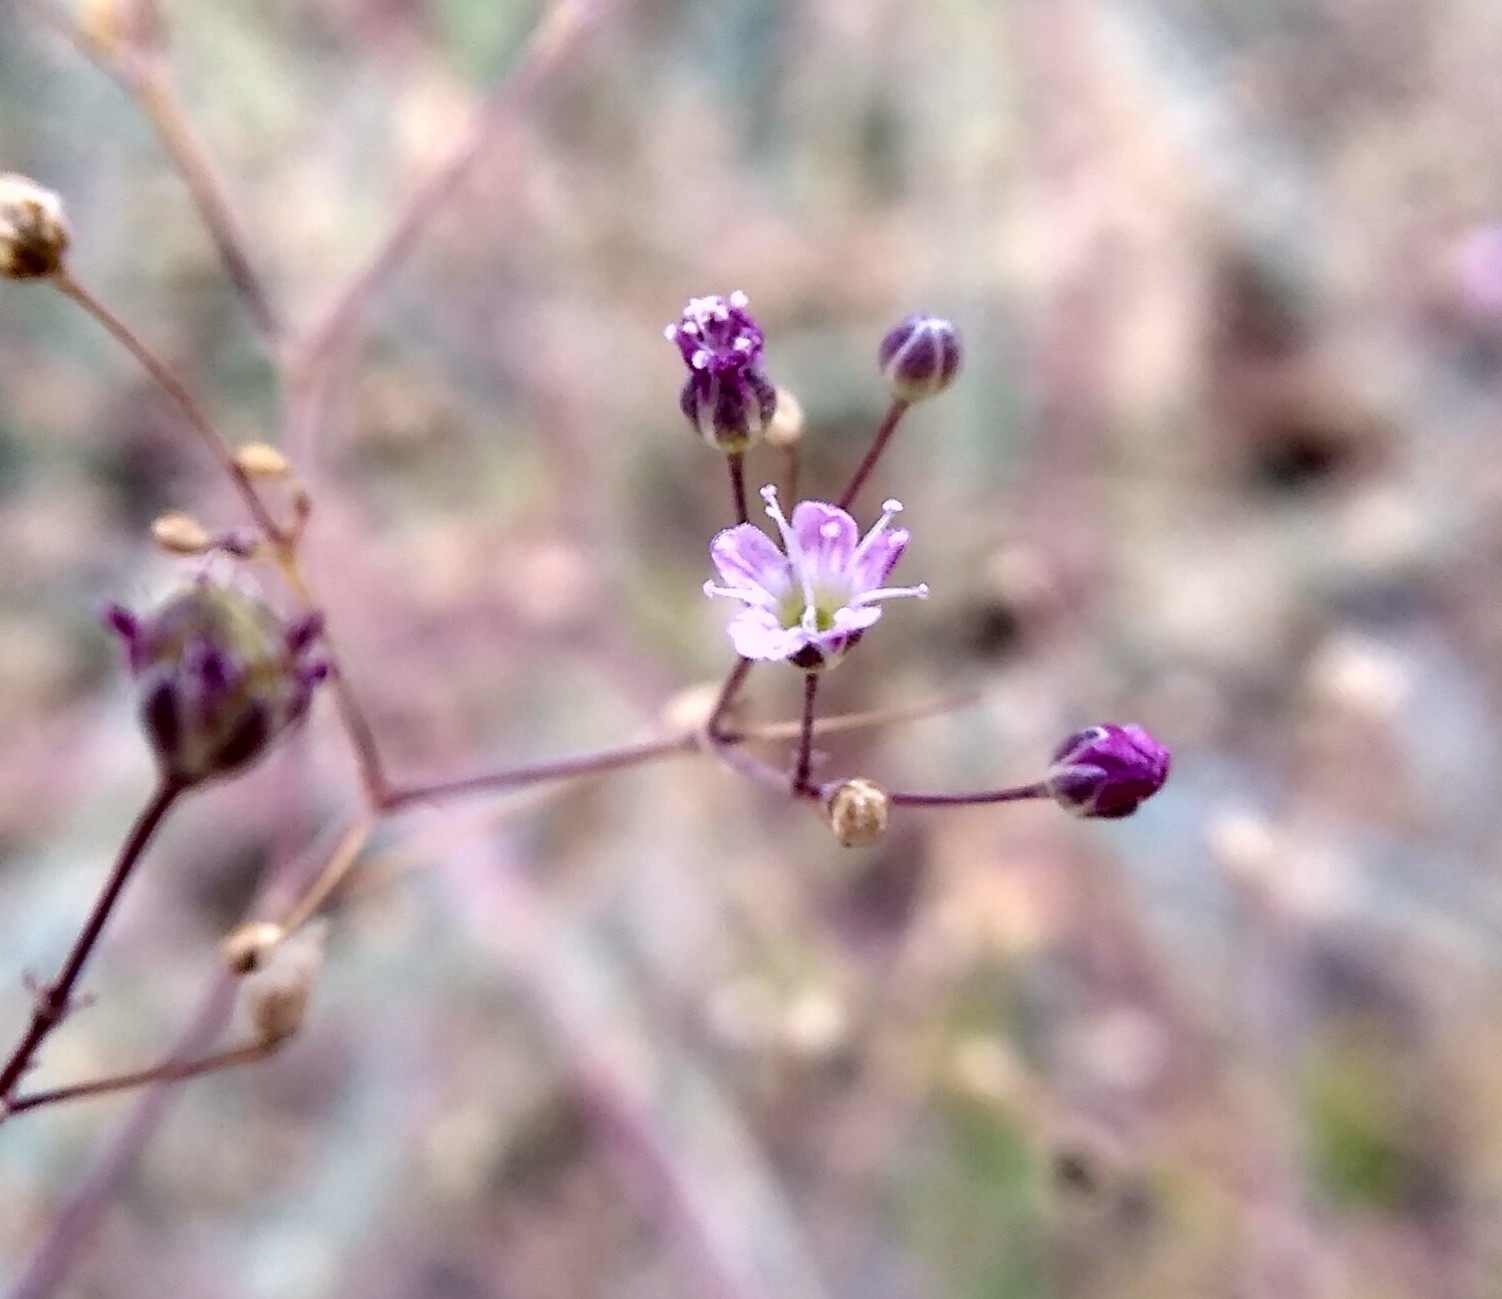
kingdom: Plantae
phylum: Tracheophyta
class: Magnoliopsida
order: Caryophyllales
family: Caryophyllaceae
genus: Gypsophila
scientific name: Gypsophila perfoliata
